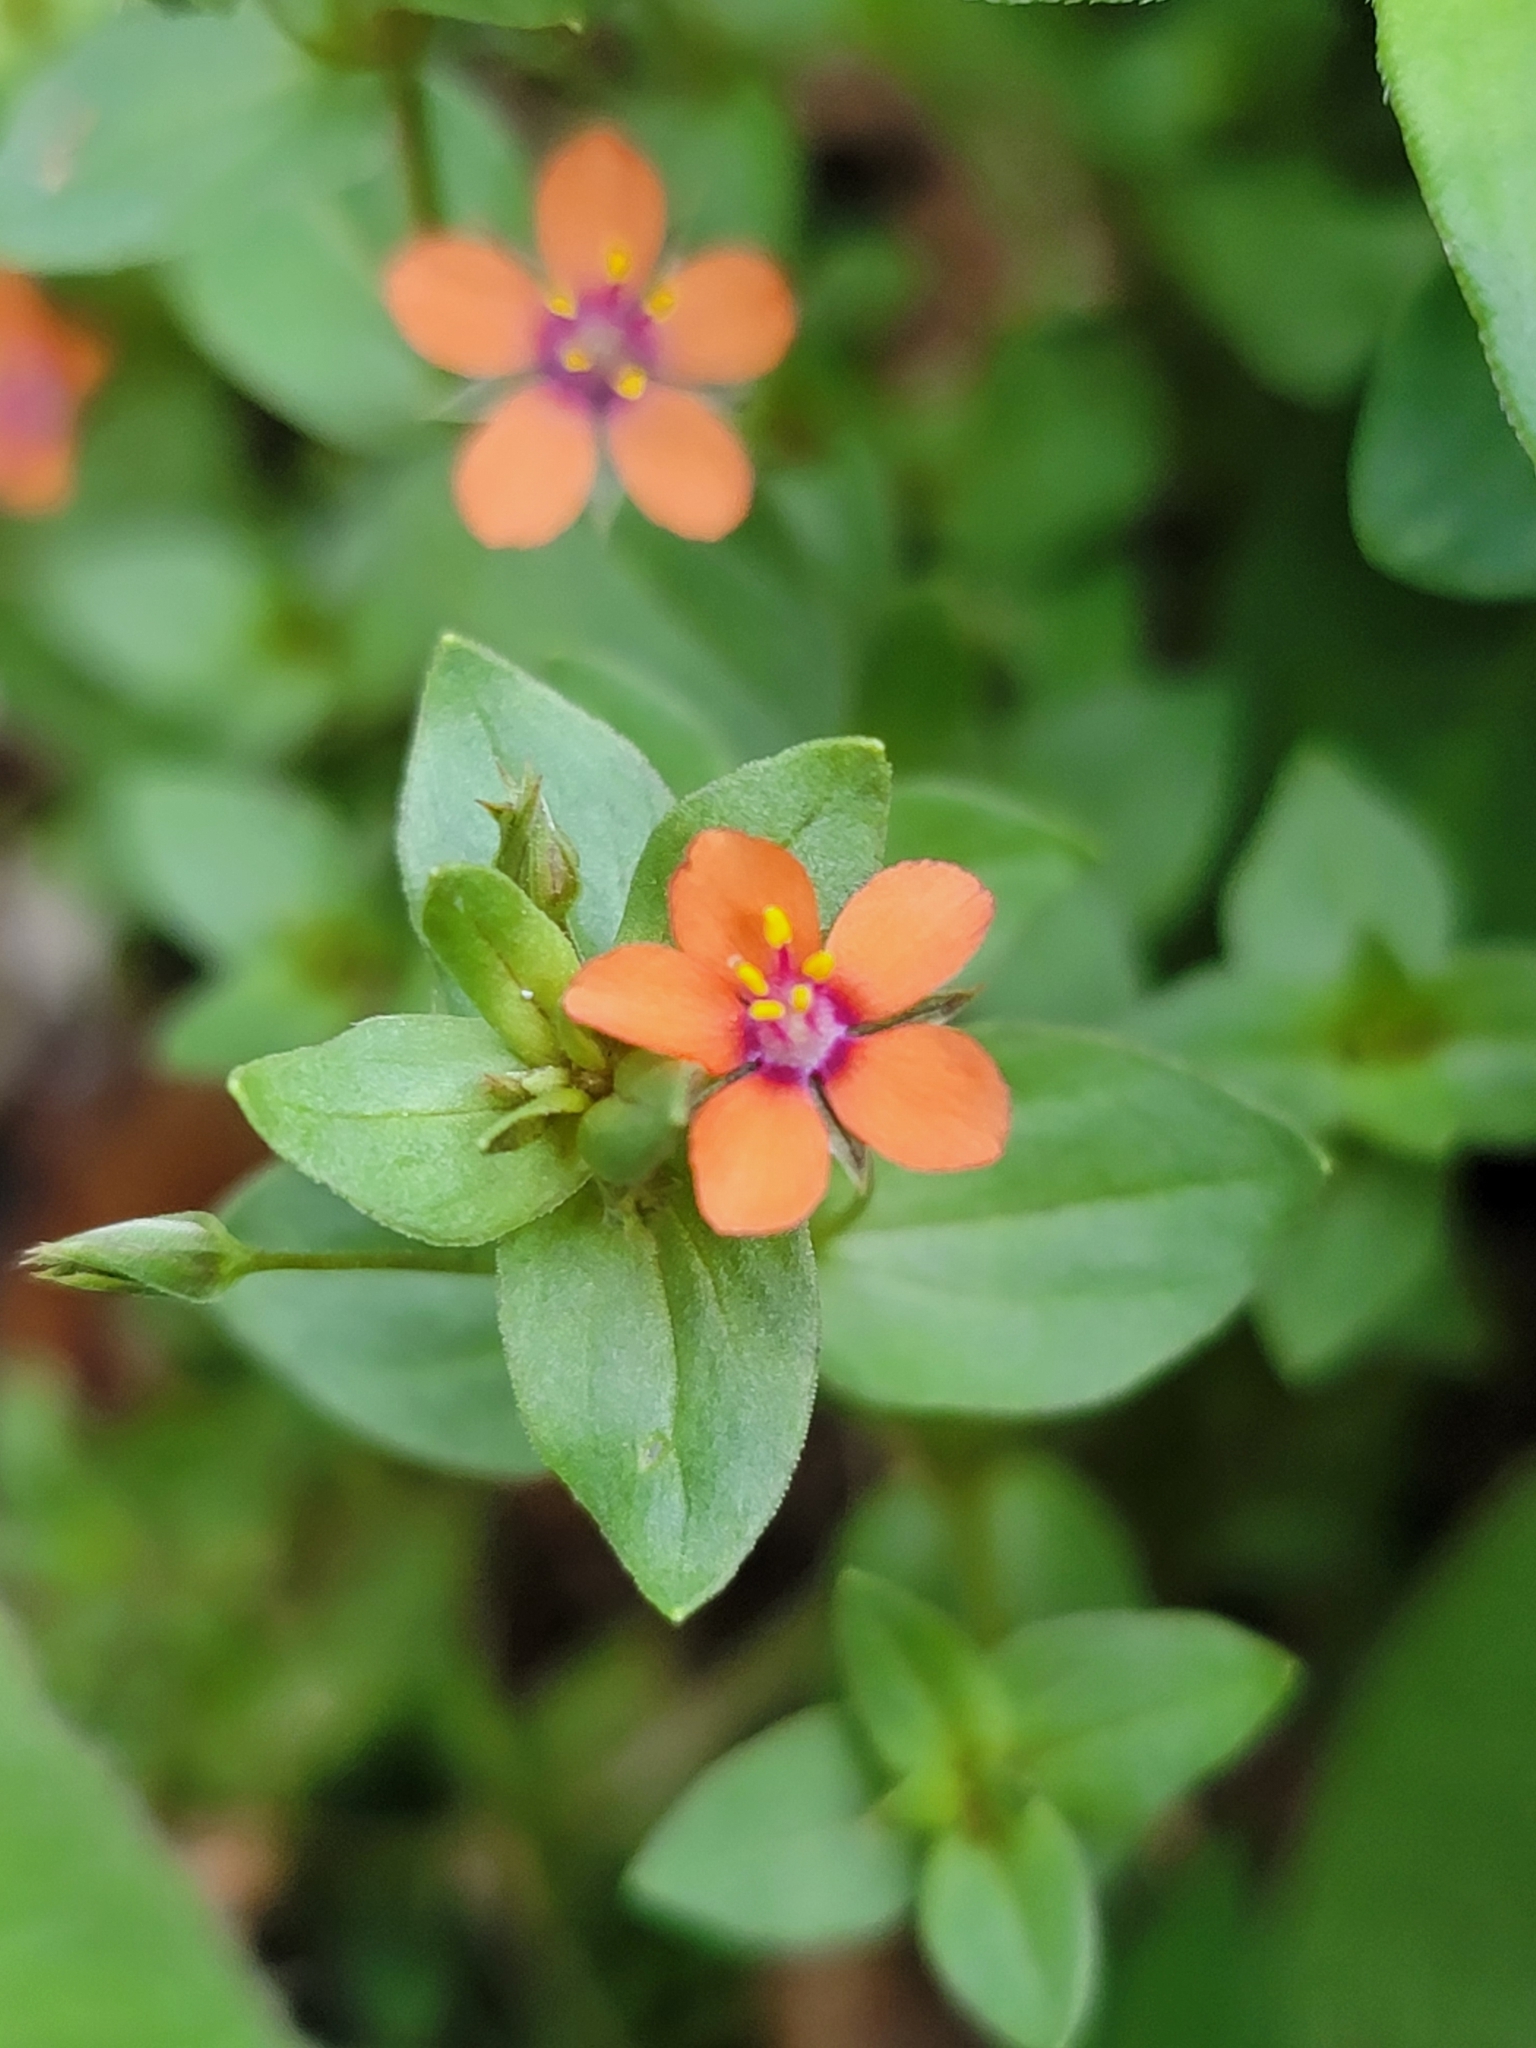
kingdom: Plantae
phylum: Tracheophyta
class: Magnoliopsida
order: Ericales
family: Primulaceae
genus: Lysimachia
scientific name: Lysimachia arvensis
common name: Scarlet pimpernel
